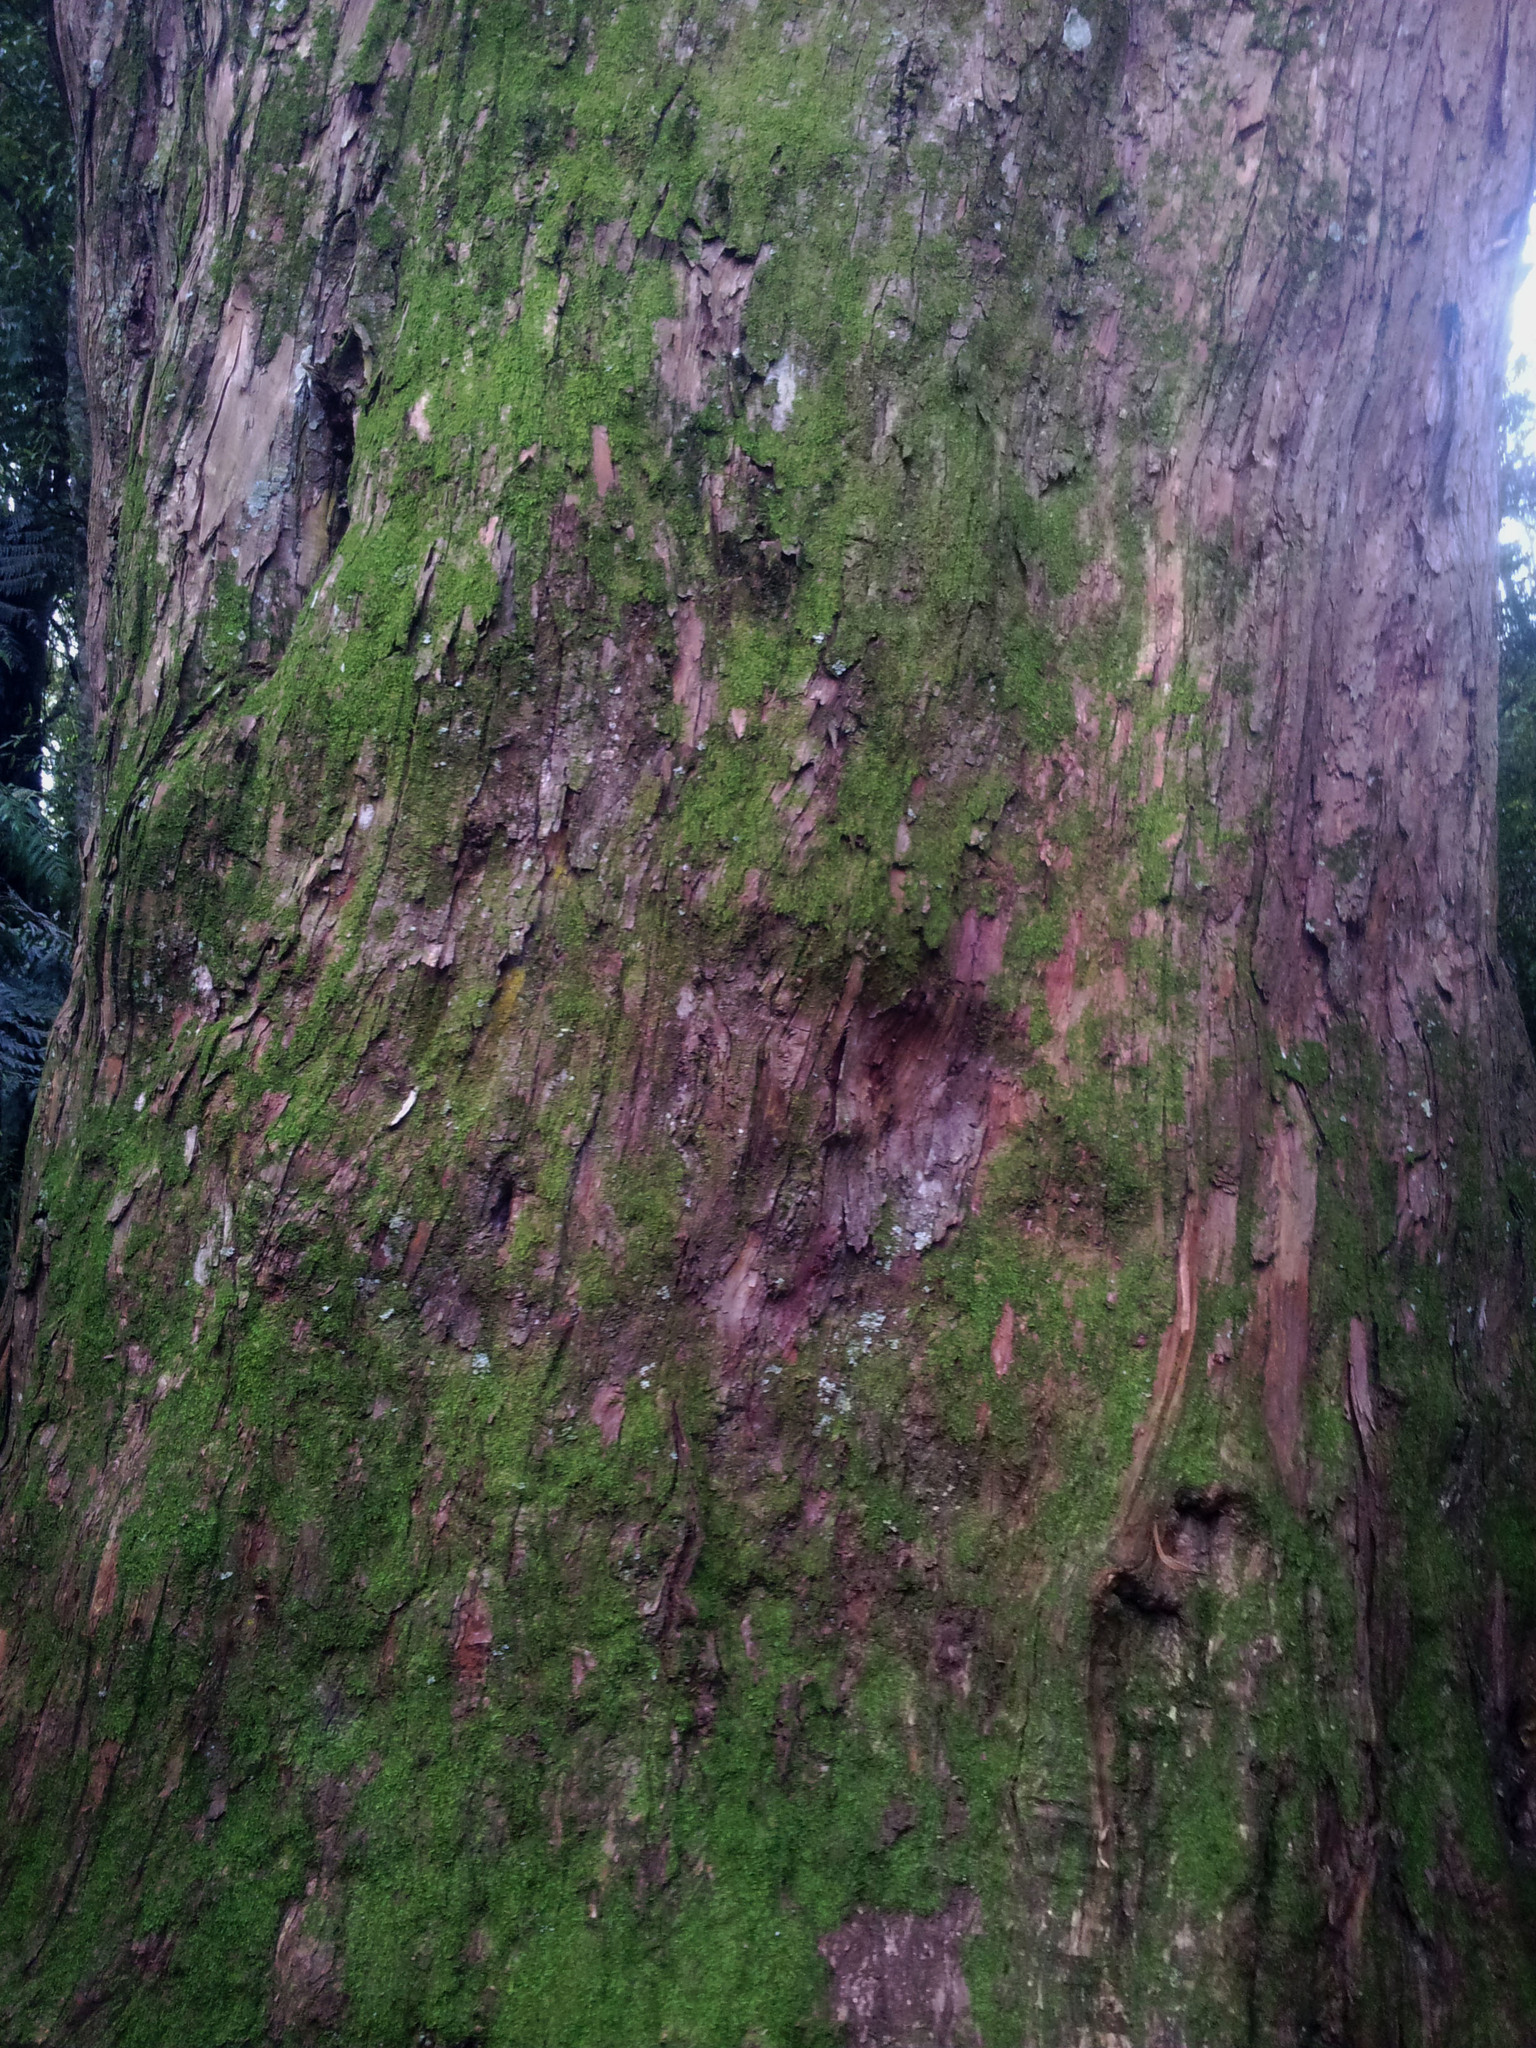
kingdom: Plantae
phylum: Tracheophyta
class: Pinopsida
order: Pinales
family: Podocarpaceae
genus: Podocarpus
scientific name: Podocarpus totara
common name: Totara
